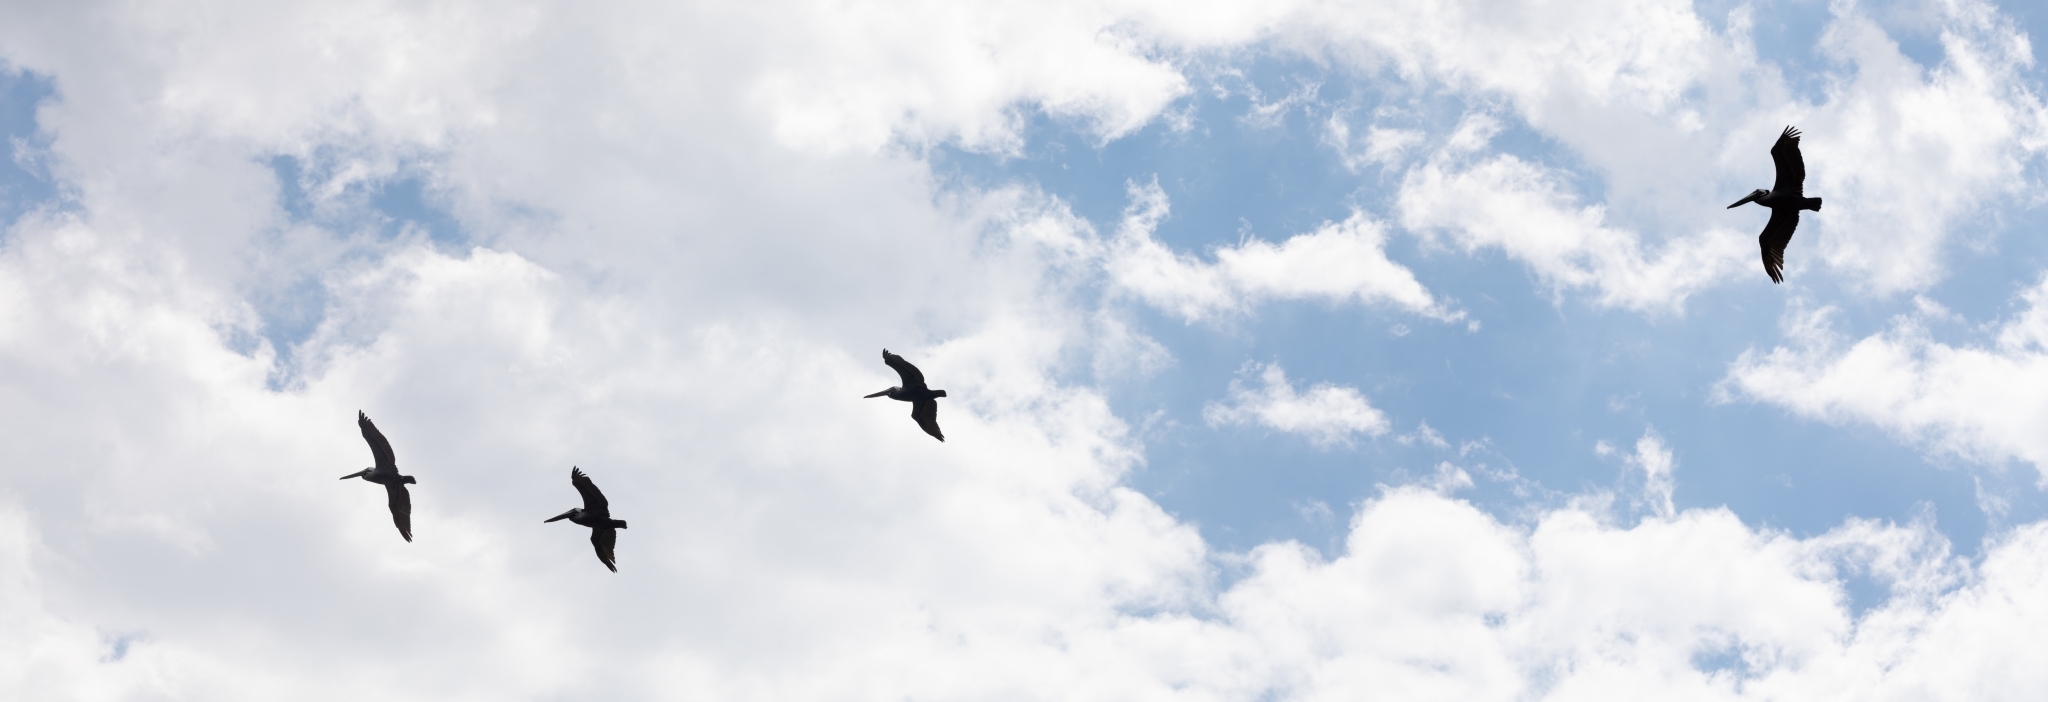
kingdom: Animalia
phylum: Chordata
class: Aves
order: Pelecaniformes
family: Pelecanidae
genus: Pelecanus
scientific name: Pelecanus occidentalis
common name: Brown pelican
